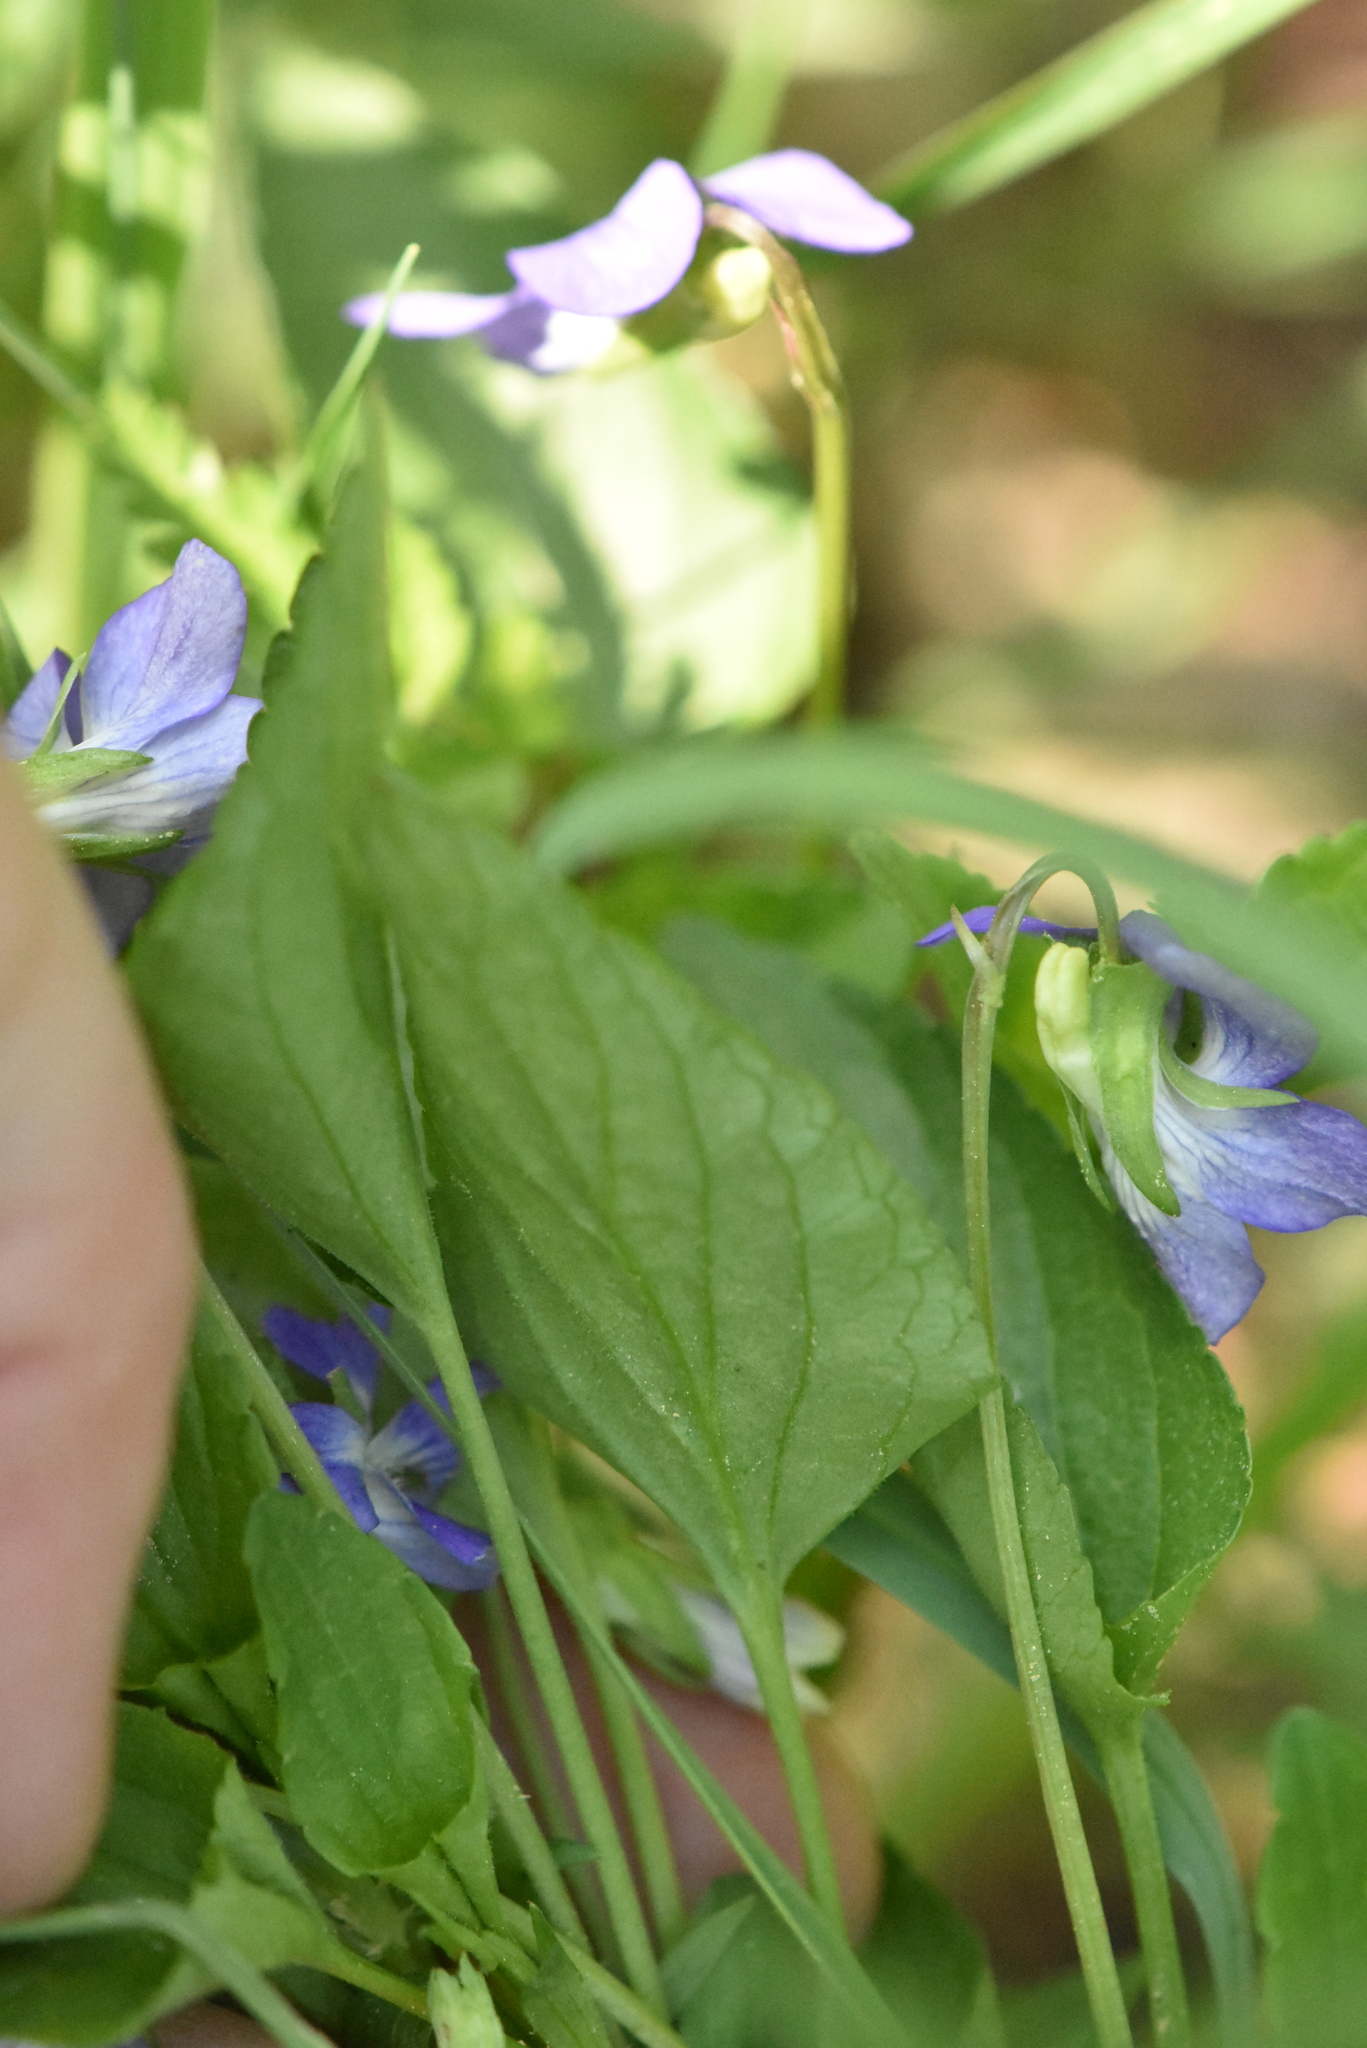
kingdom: Plantae
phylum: Tracheophyta
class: Magnoliopsida
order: Malpighiales
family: Violaceae
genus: Viola
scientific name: Viola canina
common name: Heath dog-violet
